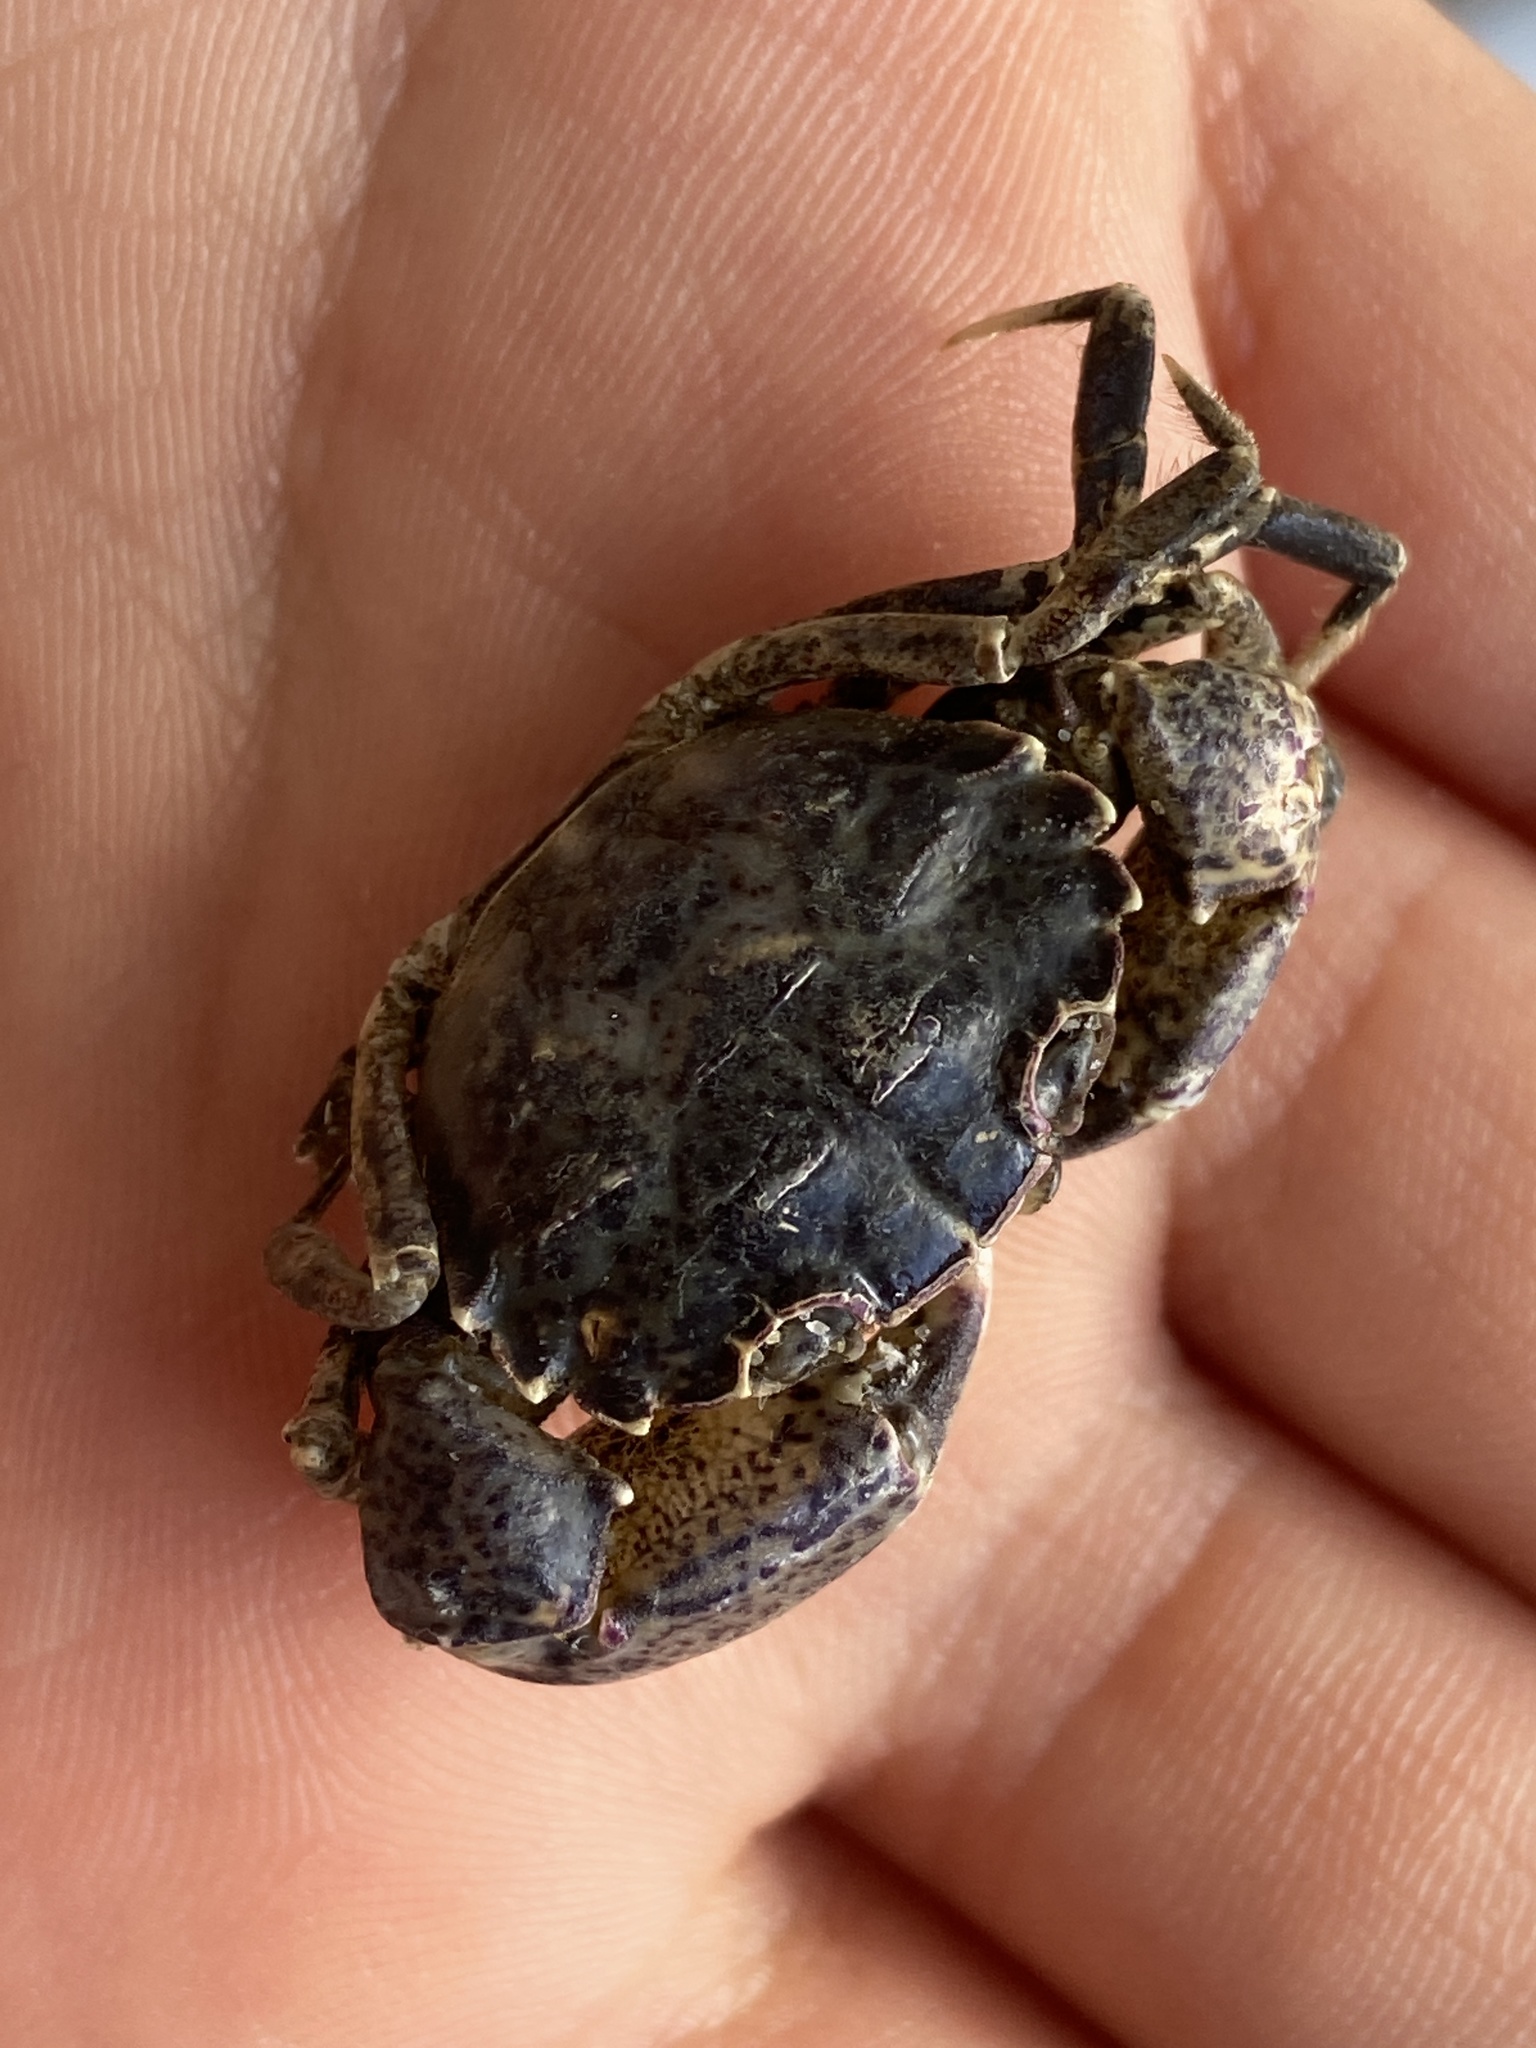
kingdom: Animalia
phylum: Arthropoda
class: Malacostraca
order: Decapoda
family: Panopeidae
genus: Rhithropanopeus
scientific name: Rhithropanopeus harrisii
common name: Dwarf crab
